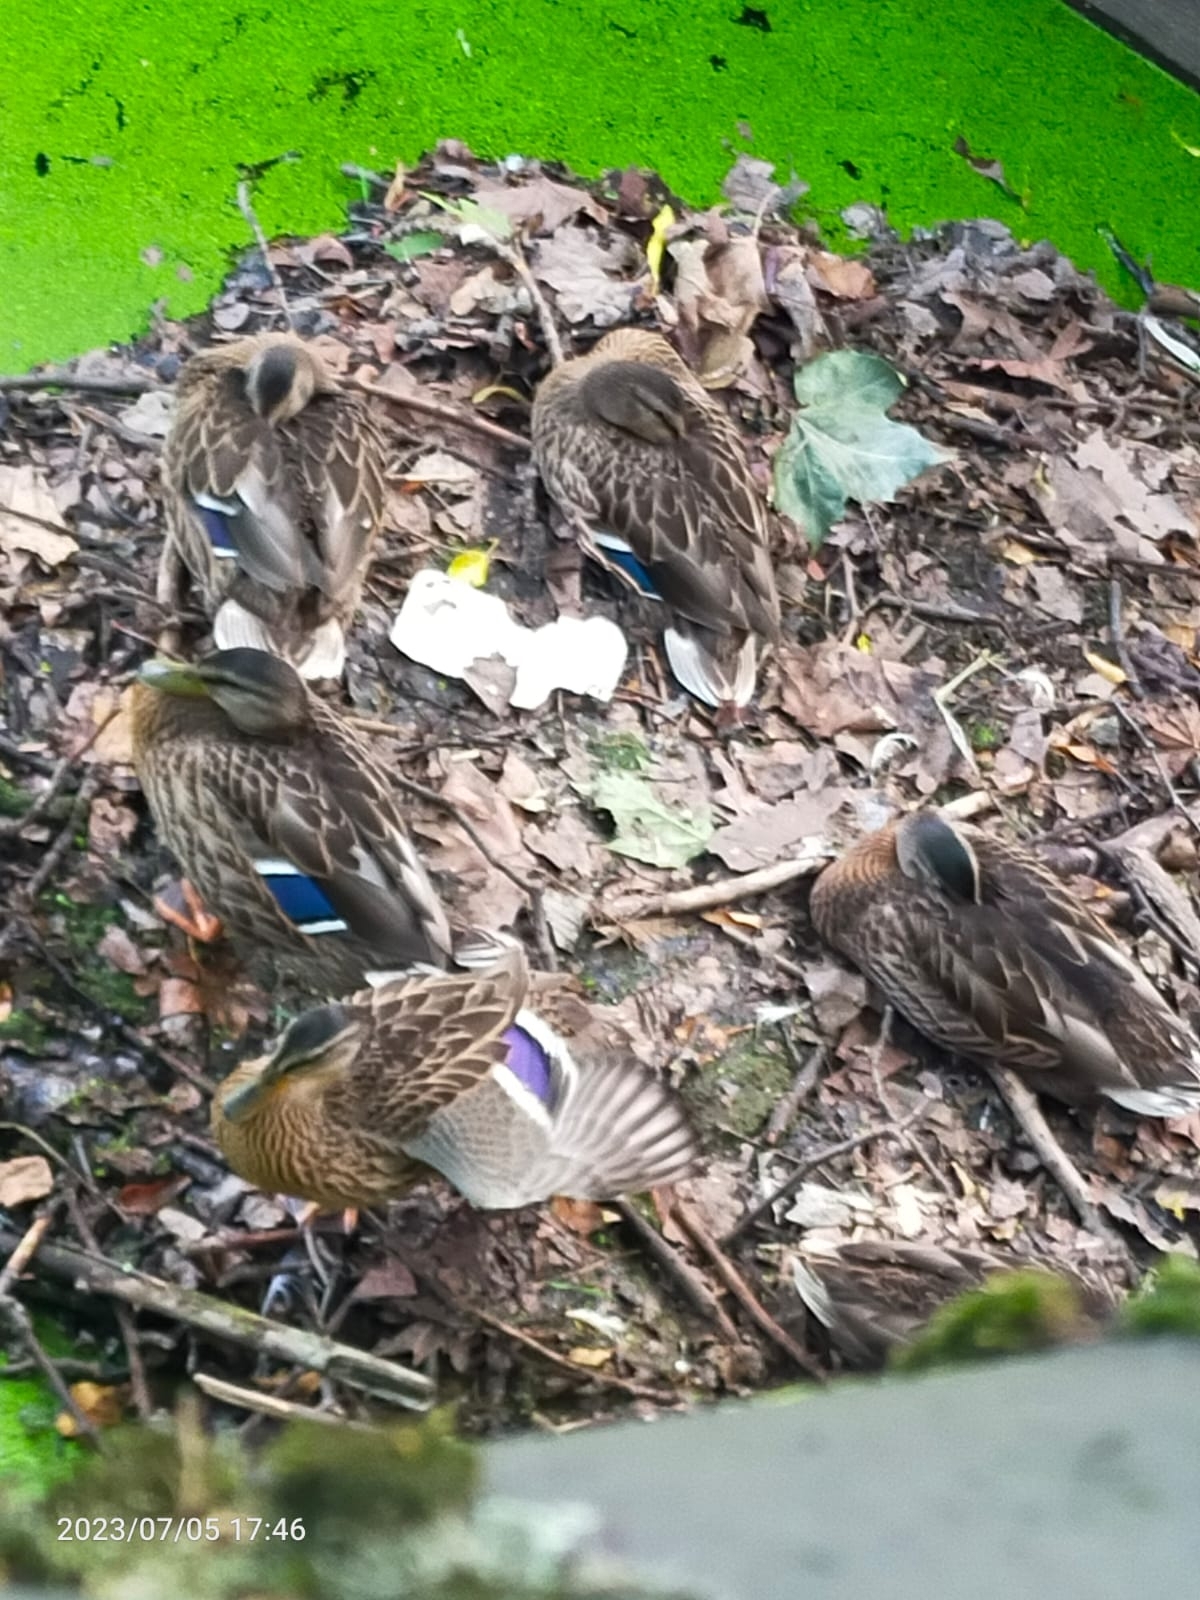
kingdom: Animalia
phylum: Chordata
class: Aves
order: Anseriformes
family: Anatidae
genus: Anas
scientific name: Anas platyrhynchos
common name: Mallard
